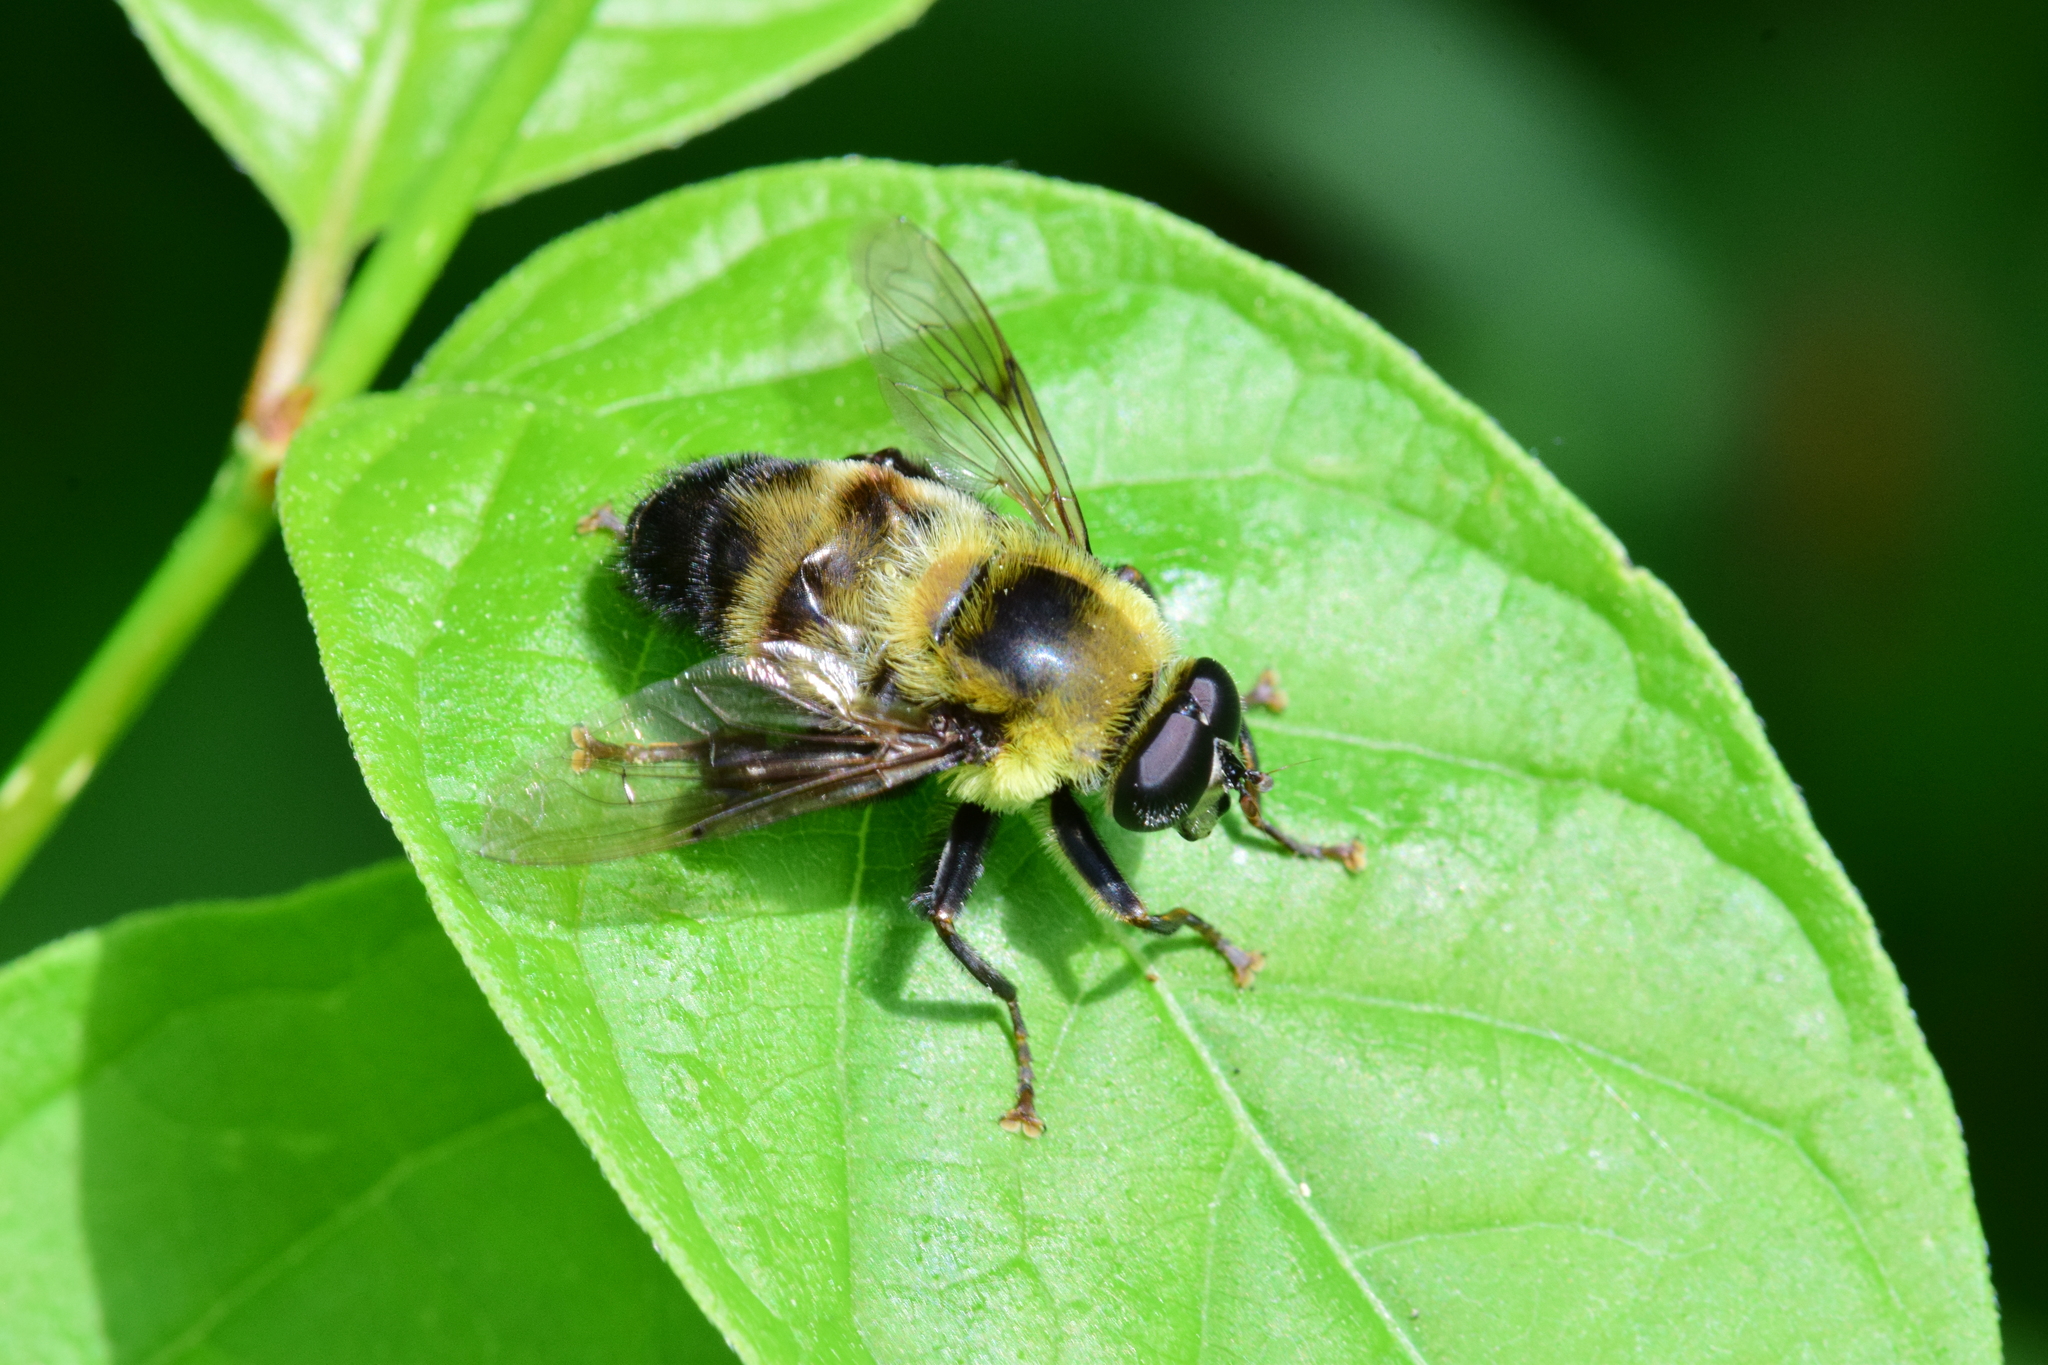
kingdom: Animalia
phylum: Arthropoda
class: Insecta
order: Diptera
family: Syrphidae
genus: Imatisma
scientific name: Imatisma posticata
